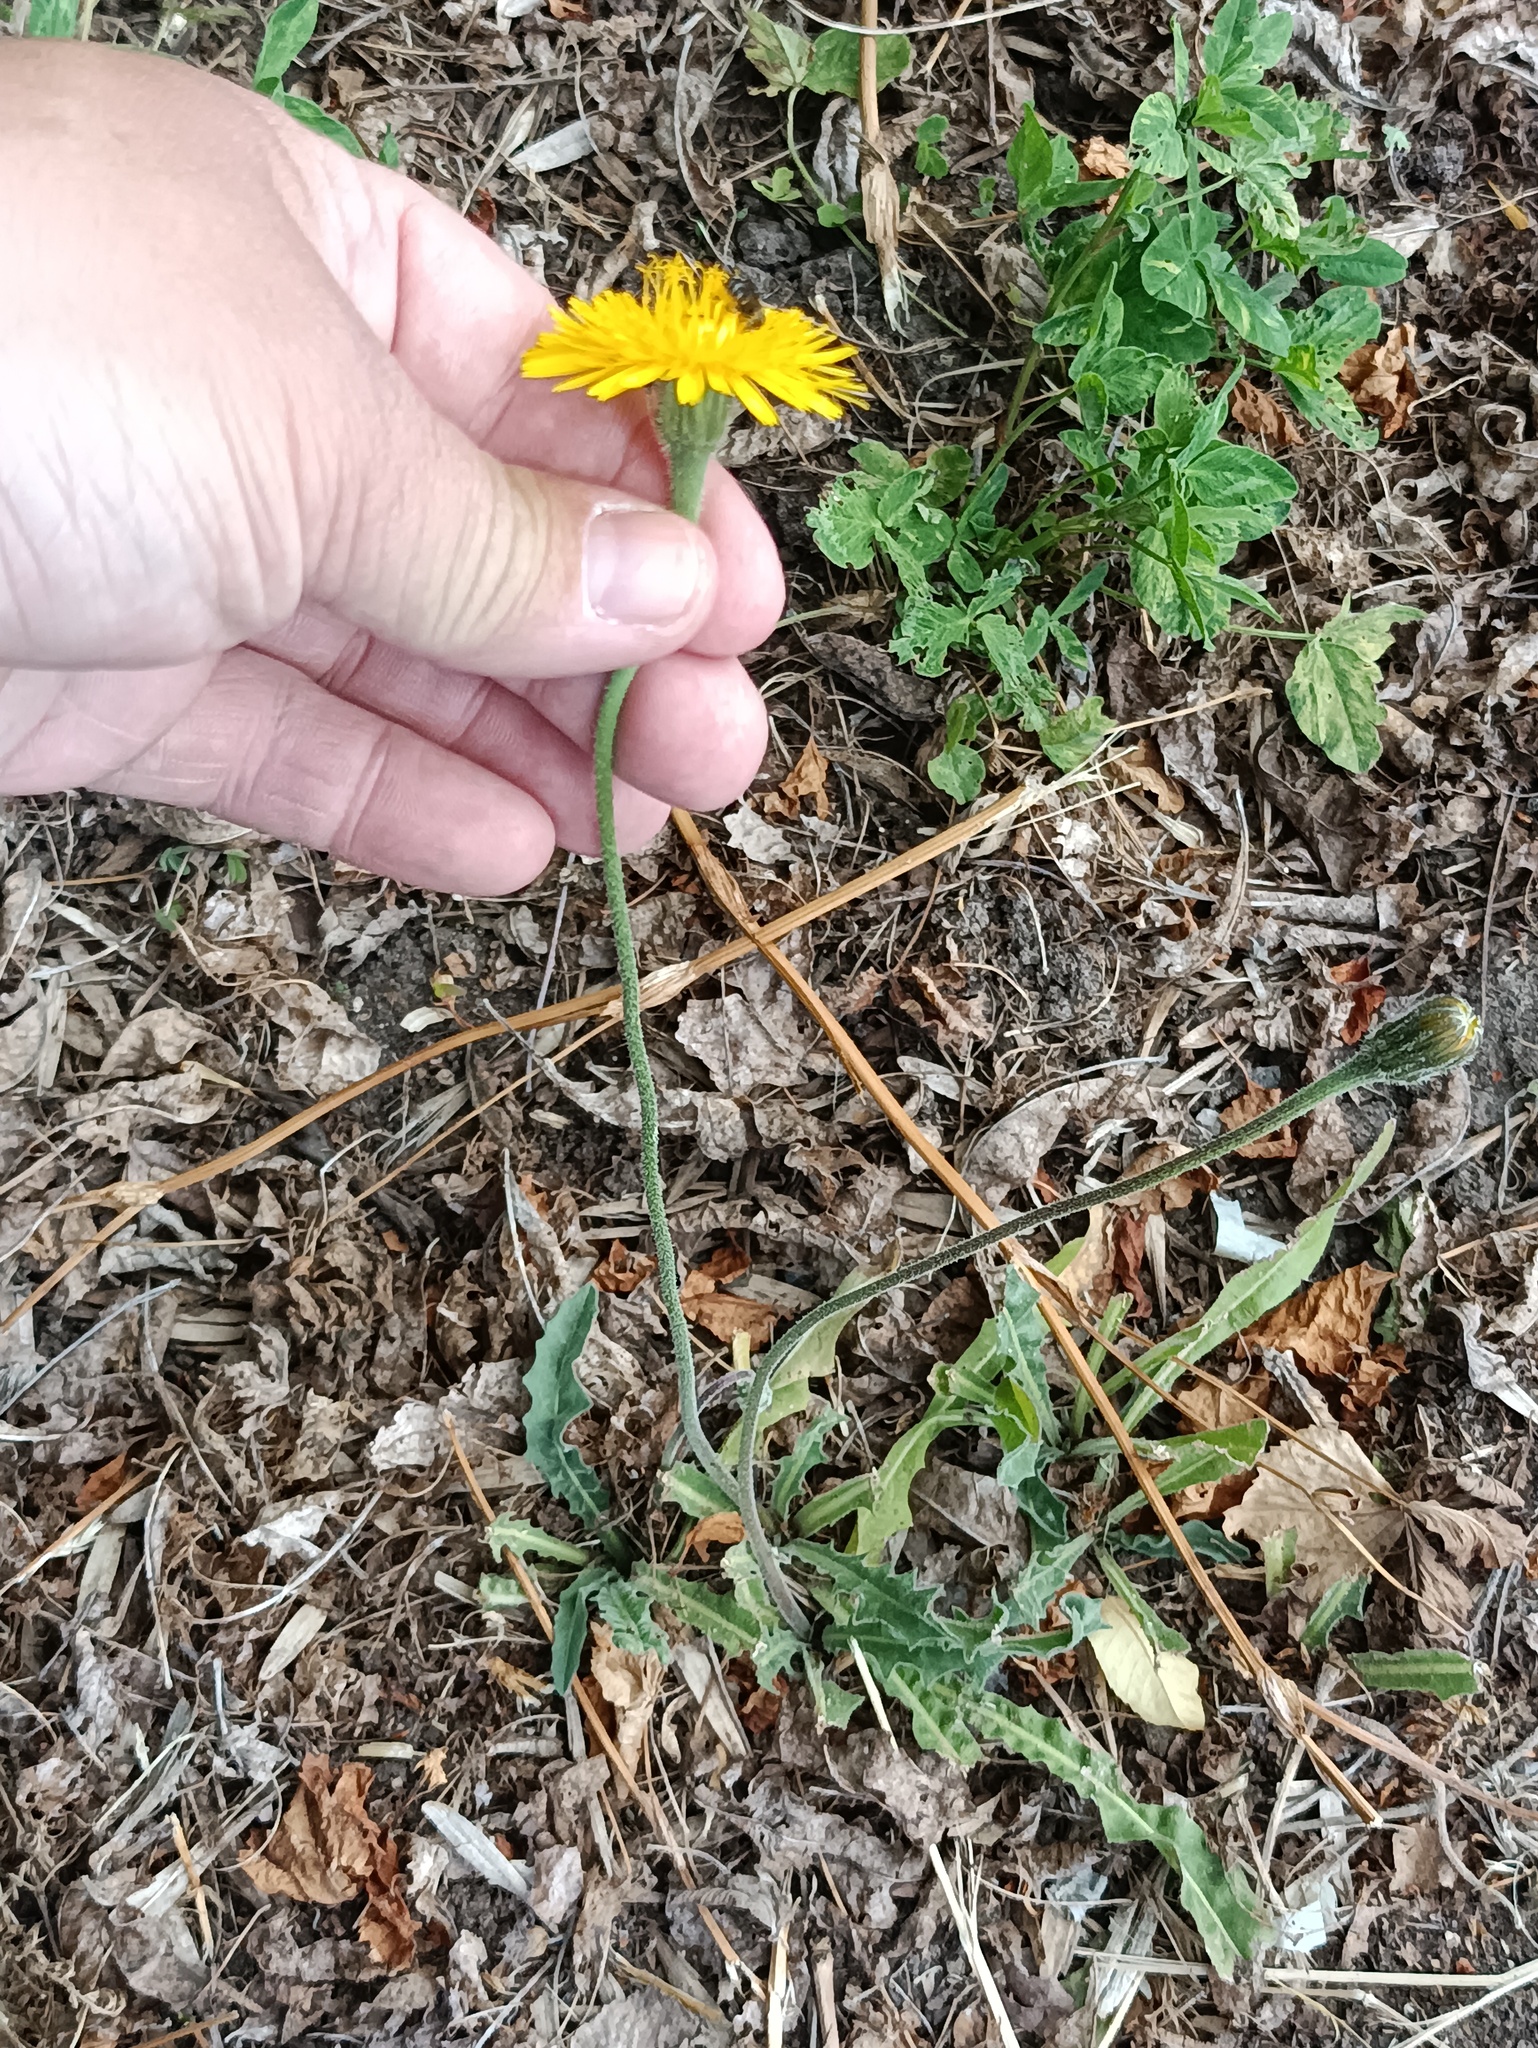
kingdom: Plantae
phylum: Tracheophyta
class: Magnoliopsida
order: Asterales
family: Asteraceae
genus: Leontodon
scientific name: Leontodon hispidus
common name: Rough hawkbit
